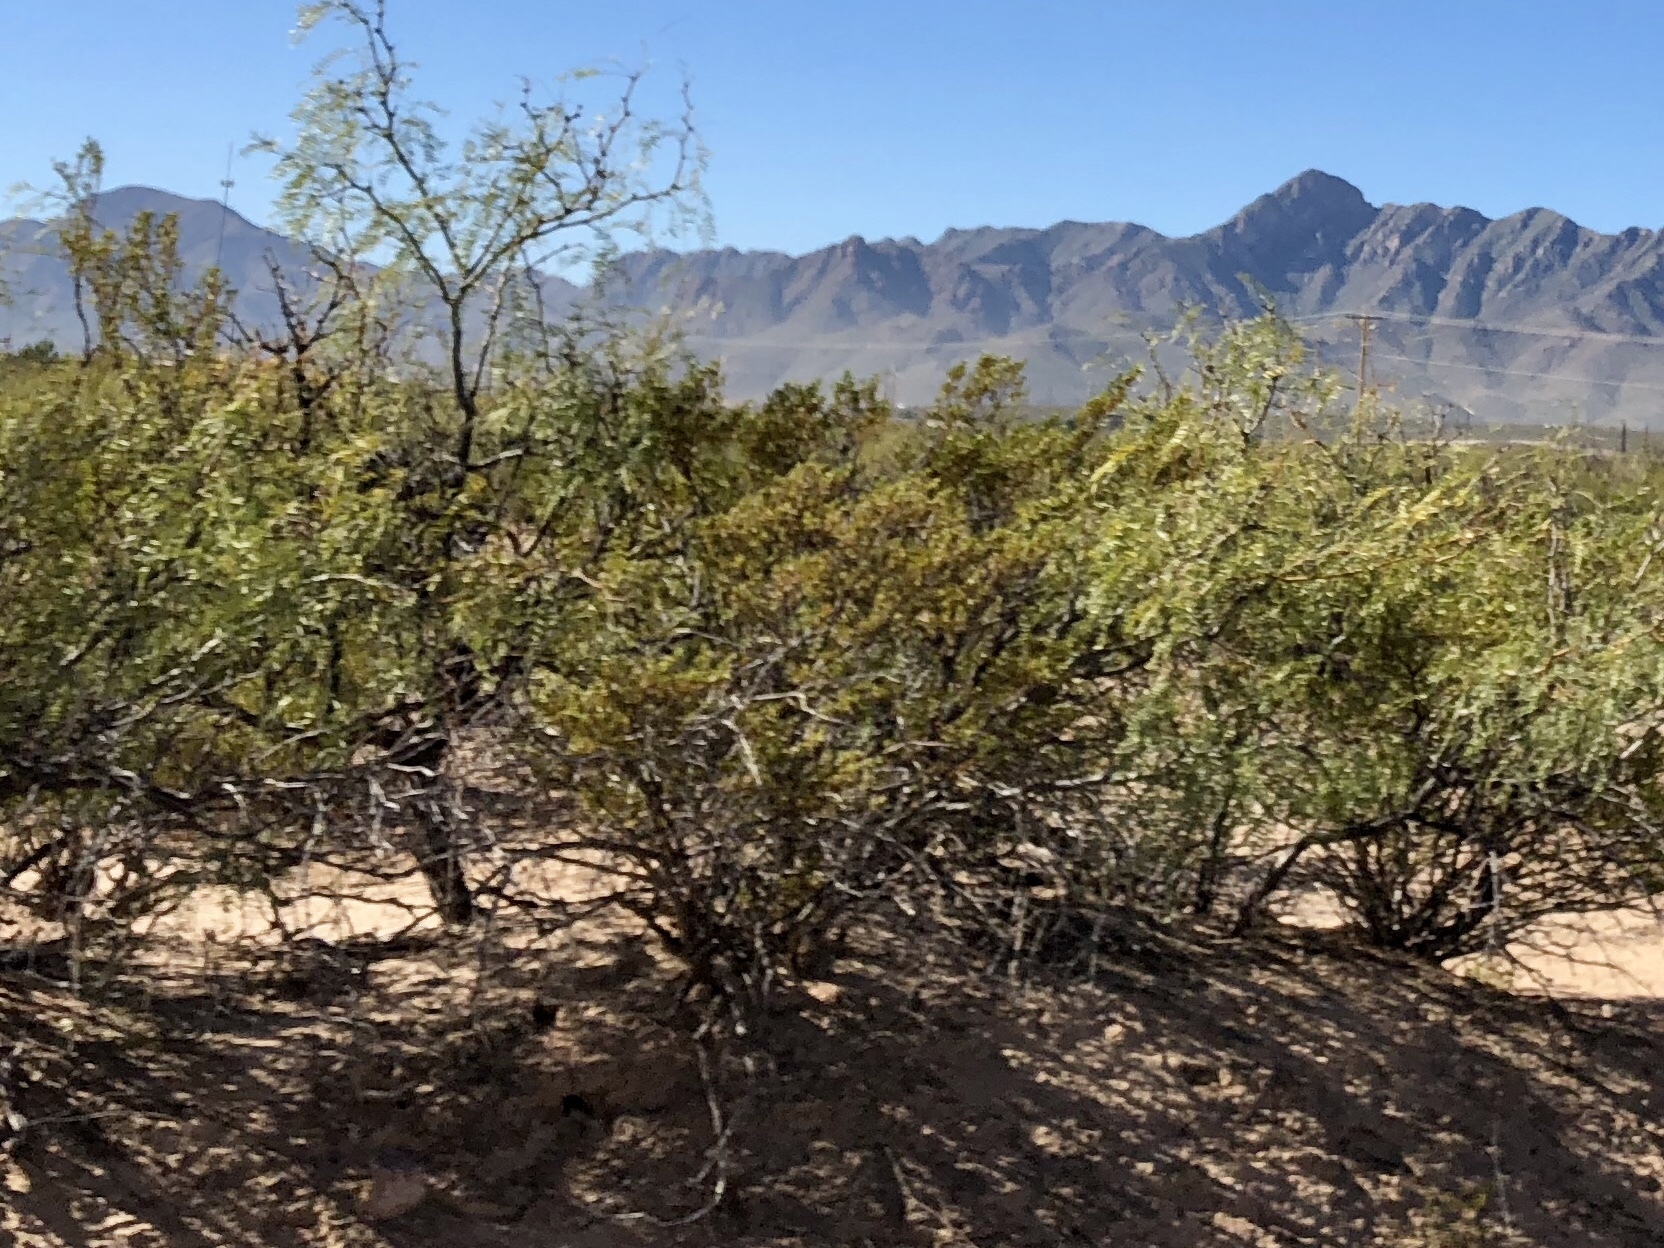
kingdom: Plantae
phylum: Tracheophyta
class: Magnoliopsida
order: Zygophyllales
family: Zygophyllaceae
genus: Larrea
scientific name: Larrea tridentata
